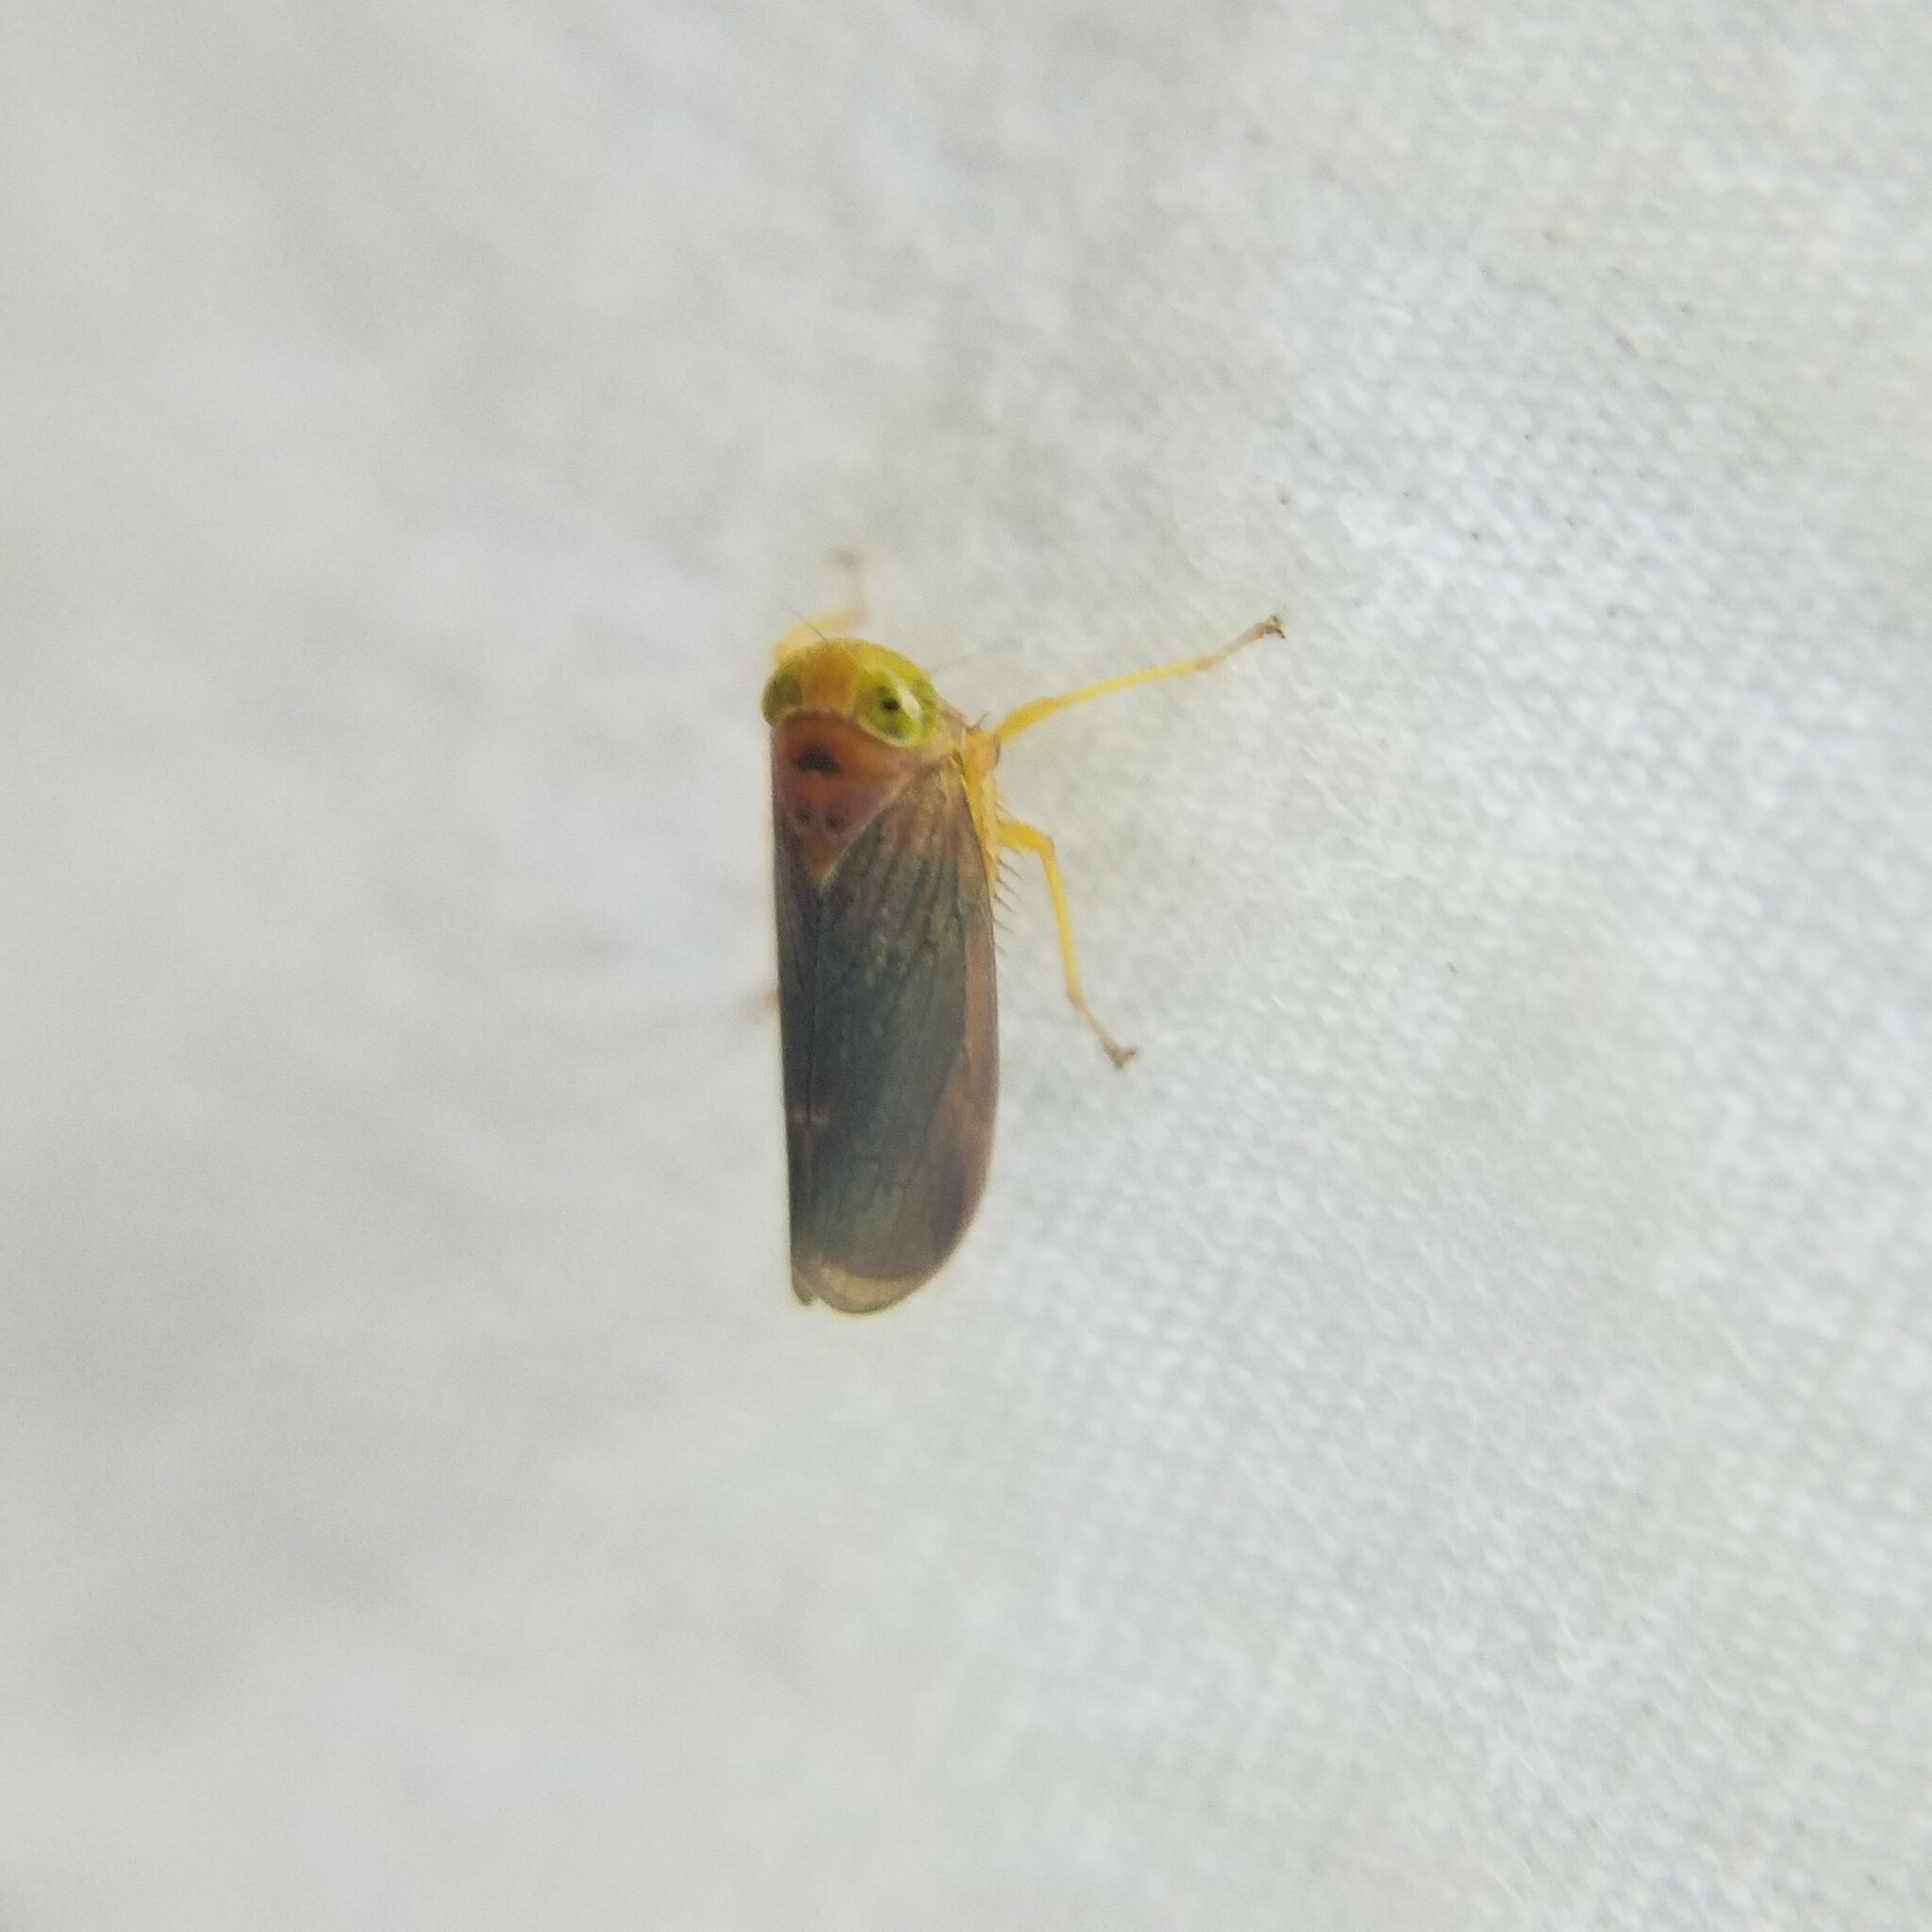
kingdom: Animalia
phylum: Arthropoda
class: Insecta
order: Hemiptera
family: Cicadellidae
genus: Jikradia
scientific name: Jikradia olitoria
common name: Coppery leafhopper
